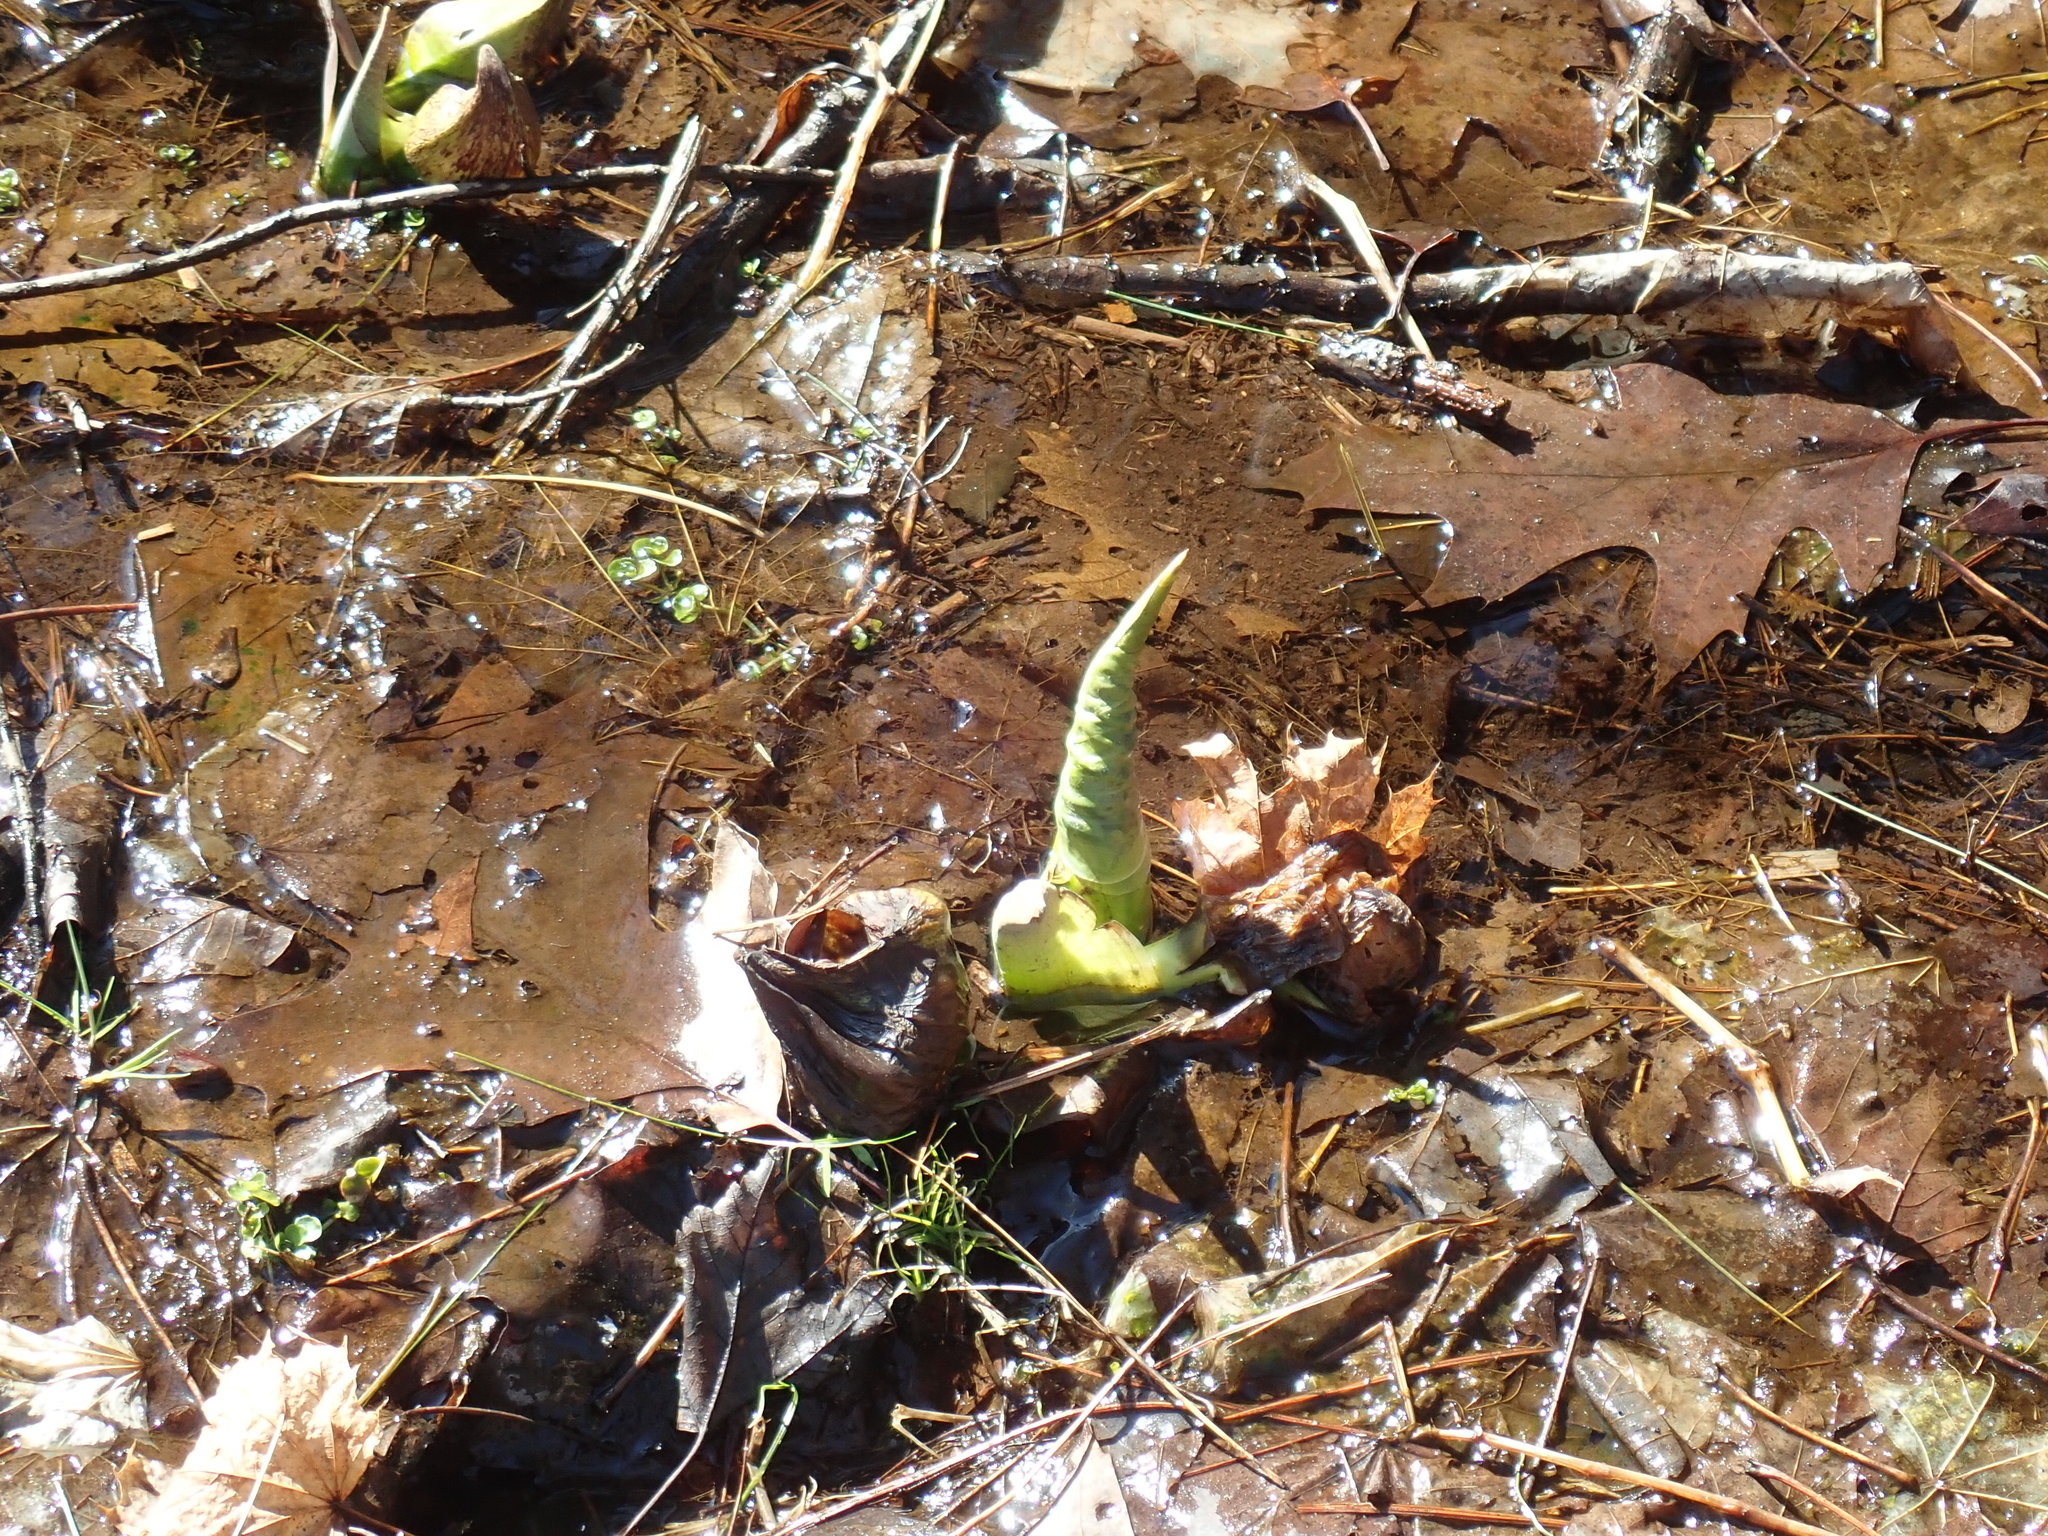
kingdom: Plantae
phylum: Tracheophyta
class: Liliopsida
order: Alismatales
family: Araceae
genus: Symplocarpus
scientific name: Symplocarpus foetidus
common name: Eastern skunk cabbage
